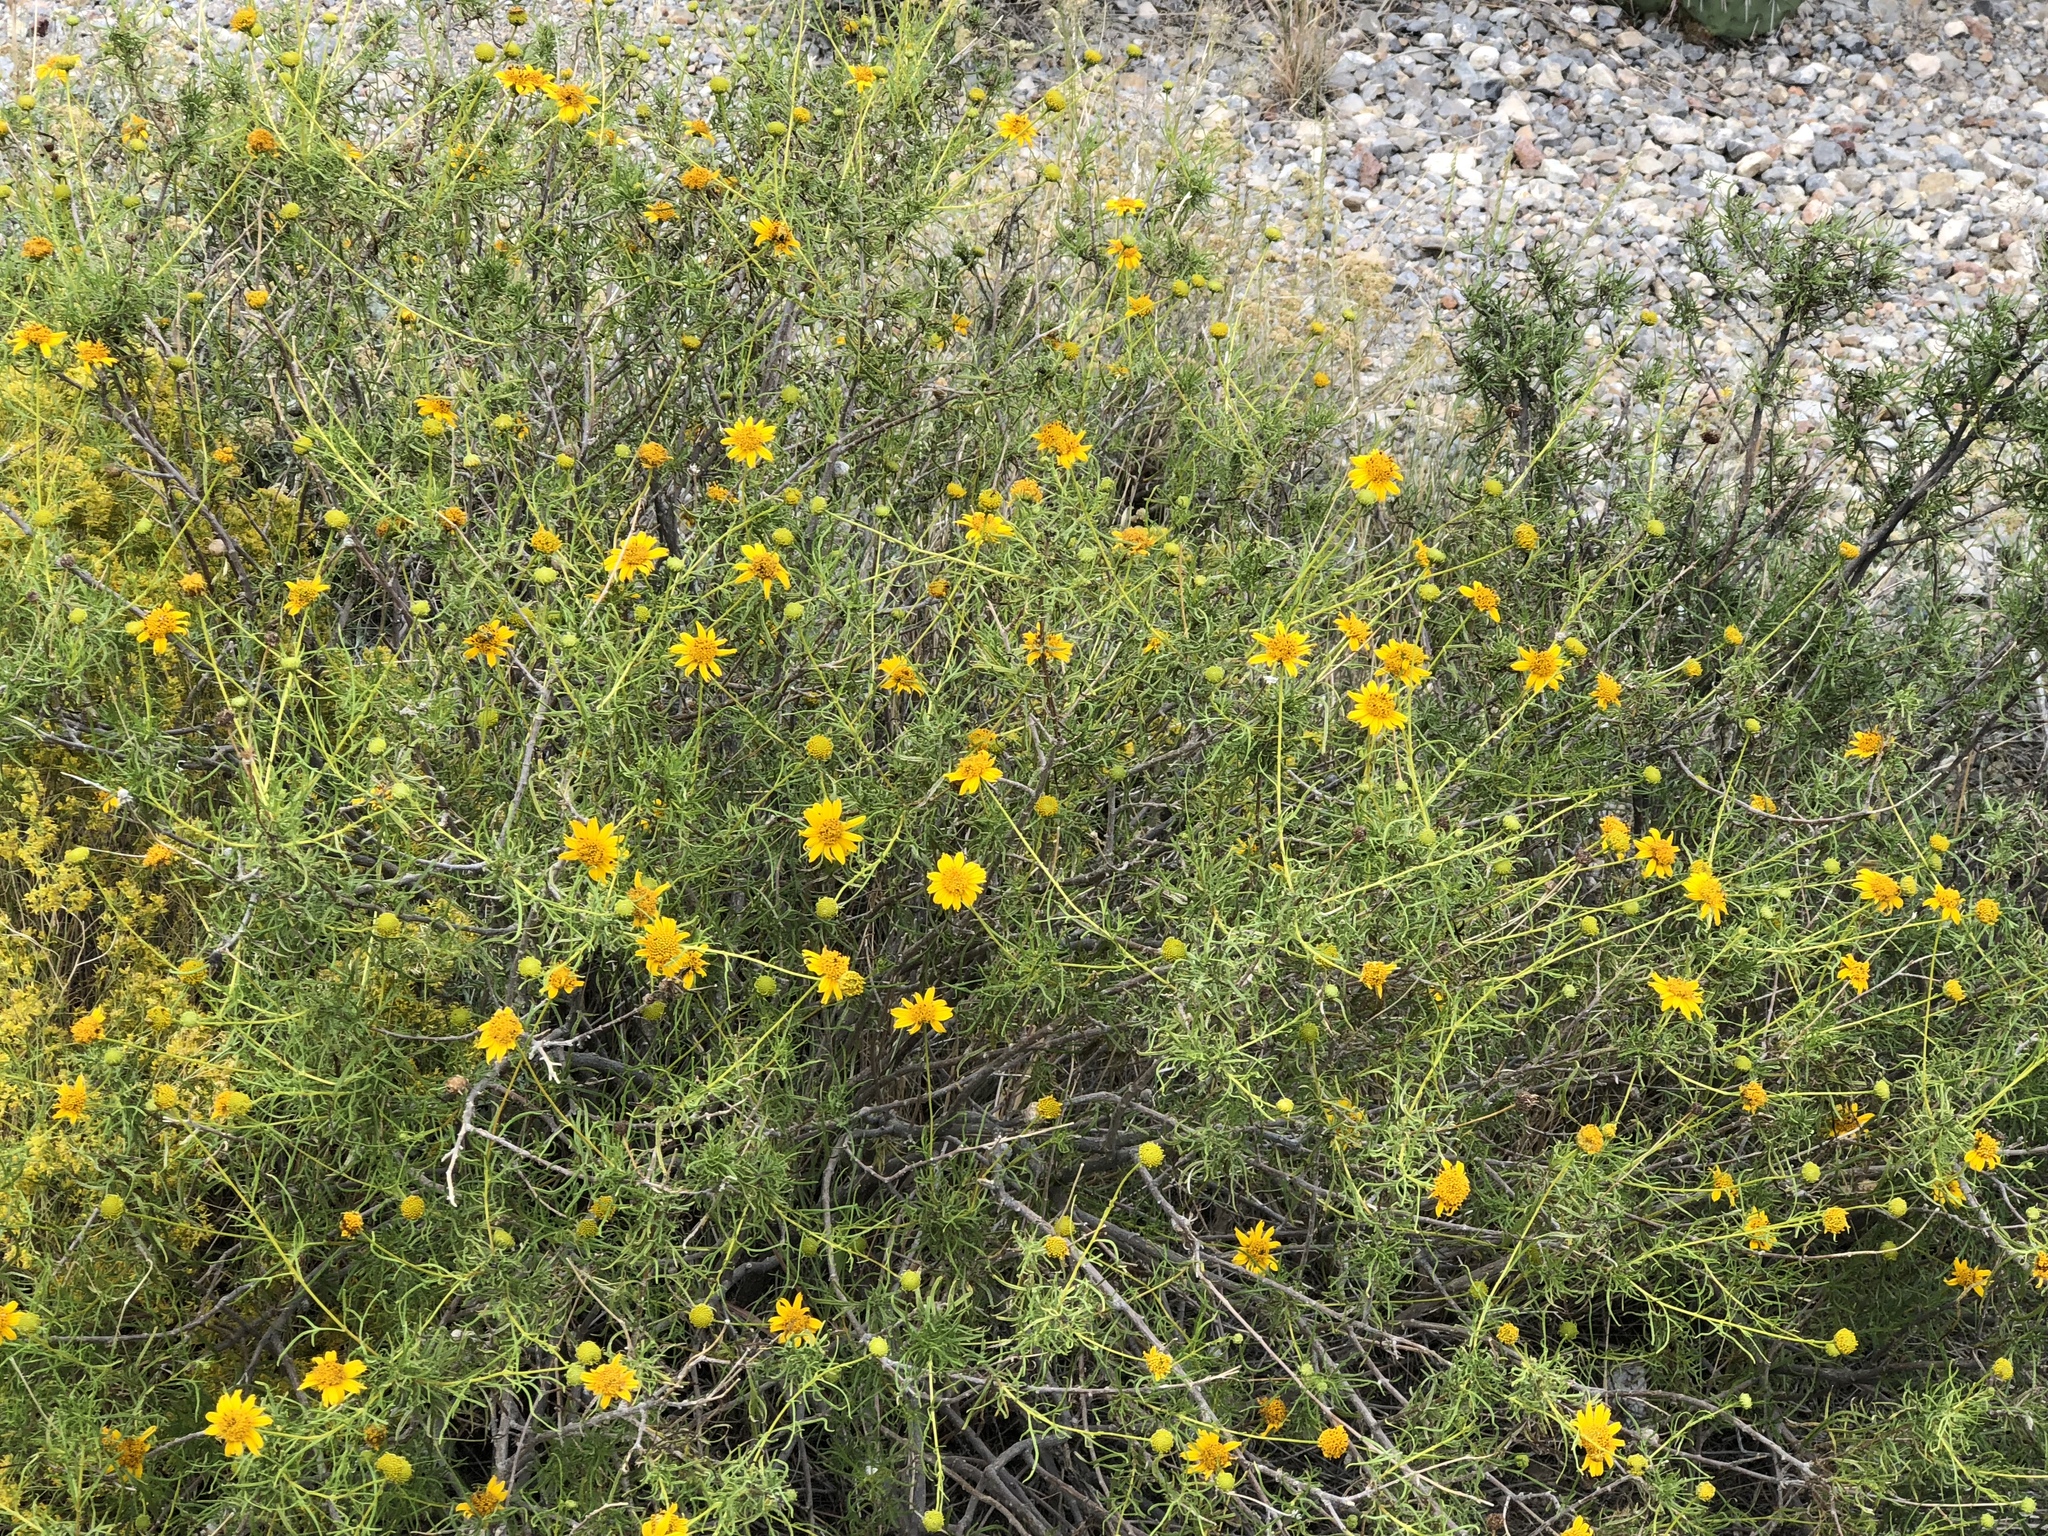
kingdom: Plantae
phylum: Tracheophyta
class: Magnoliopsida
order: Asterales
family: Asteraceae
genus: Sidneya
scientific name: Sidneya tenuifolia
